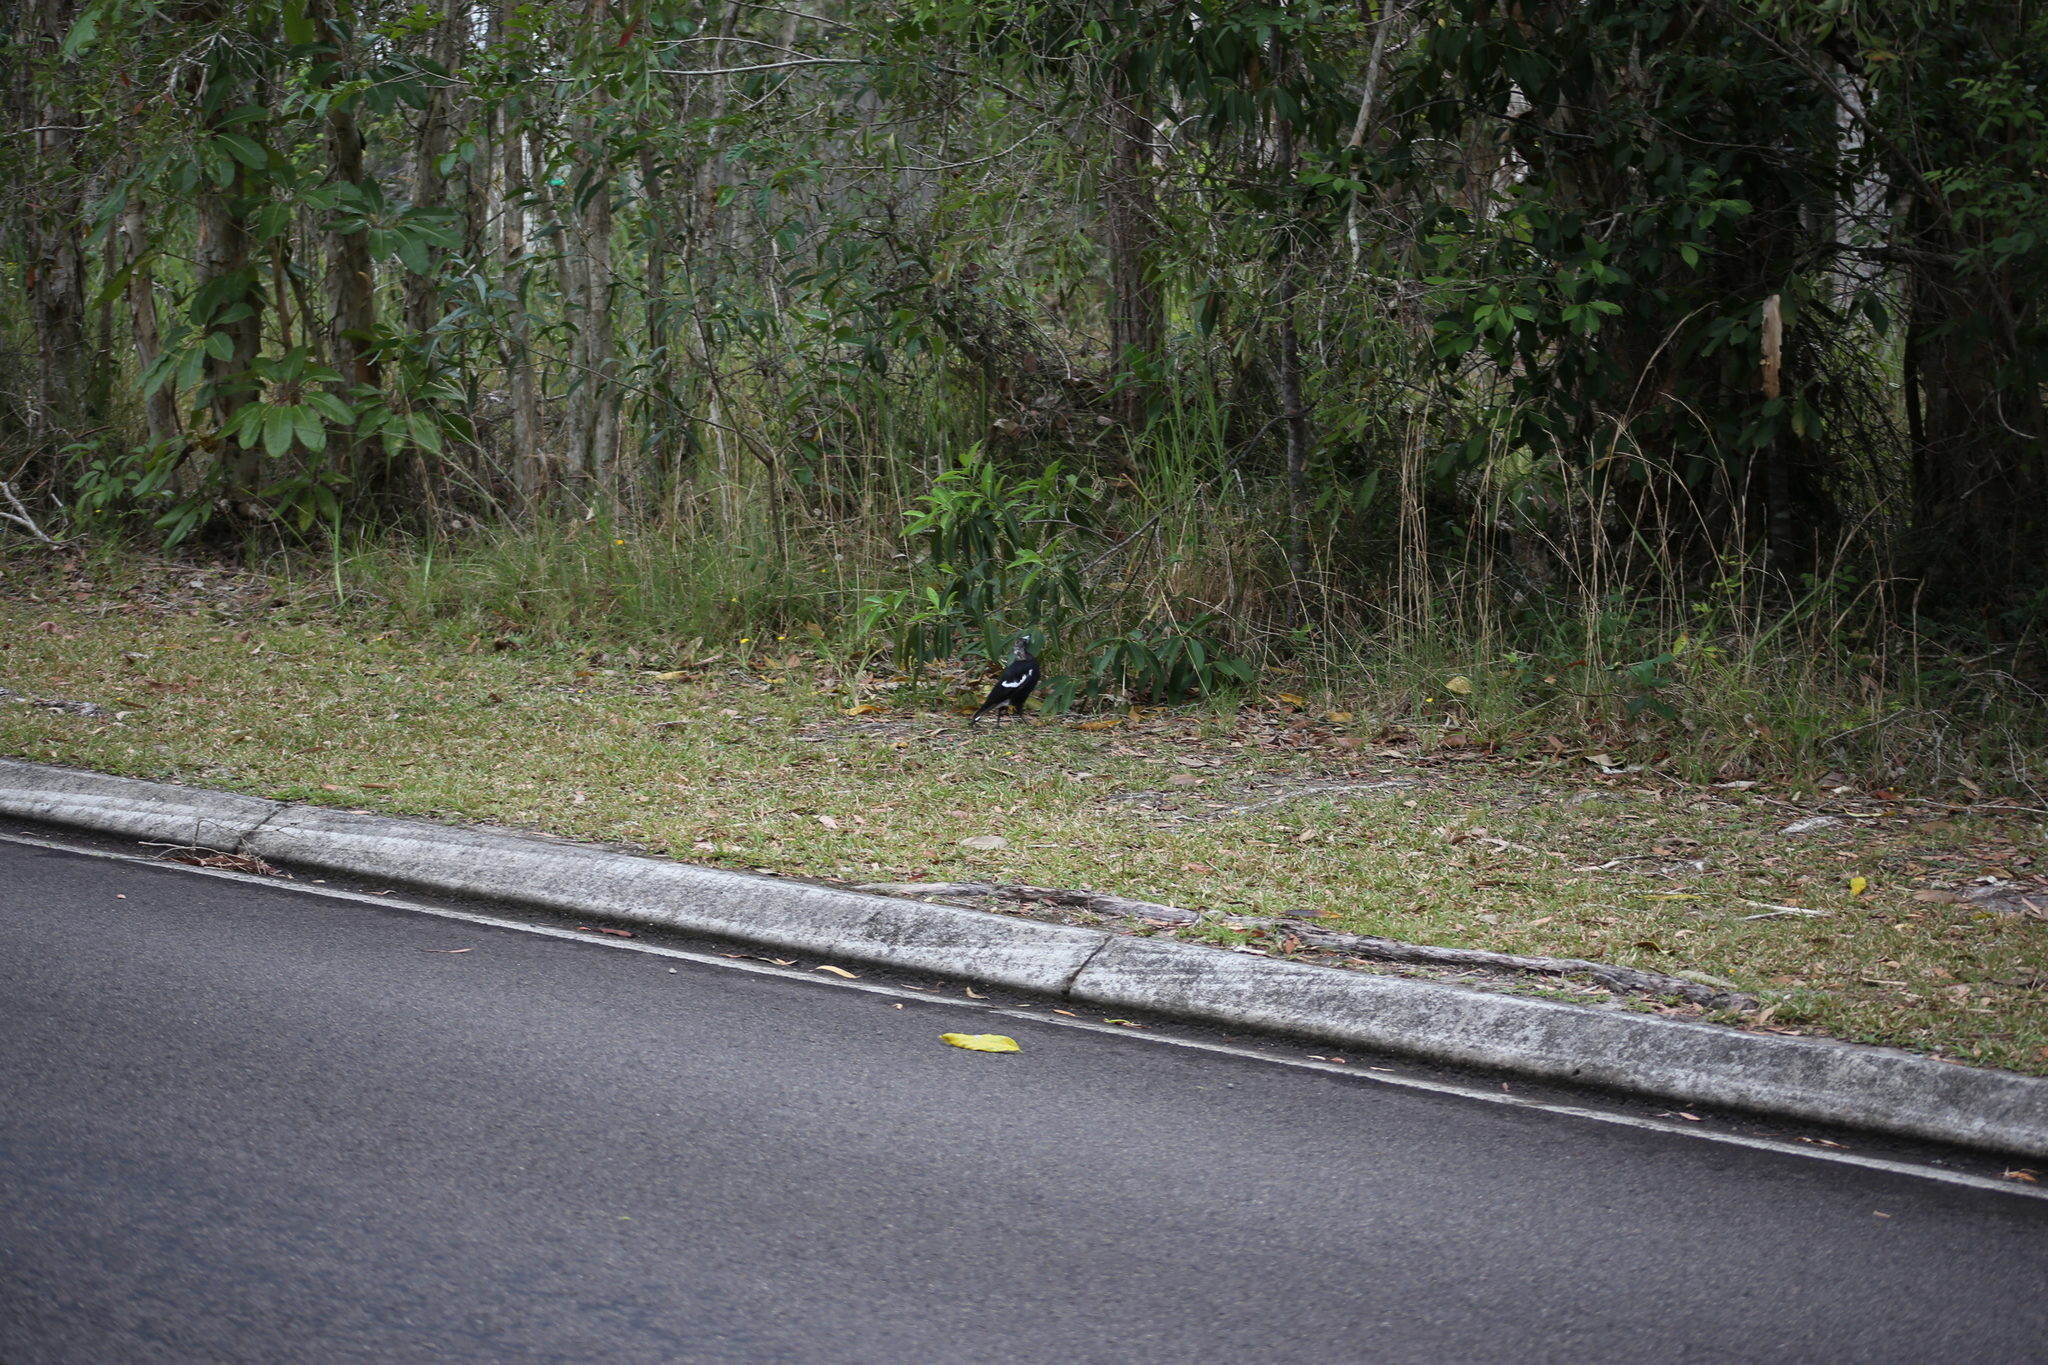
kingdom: Animalia
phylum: Chordata
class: Aves
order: Passeriformes
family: Cracticidae
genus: Gymnorhina
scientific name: Gymnorhina tibicen
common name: Australian magpie
